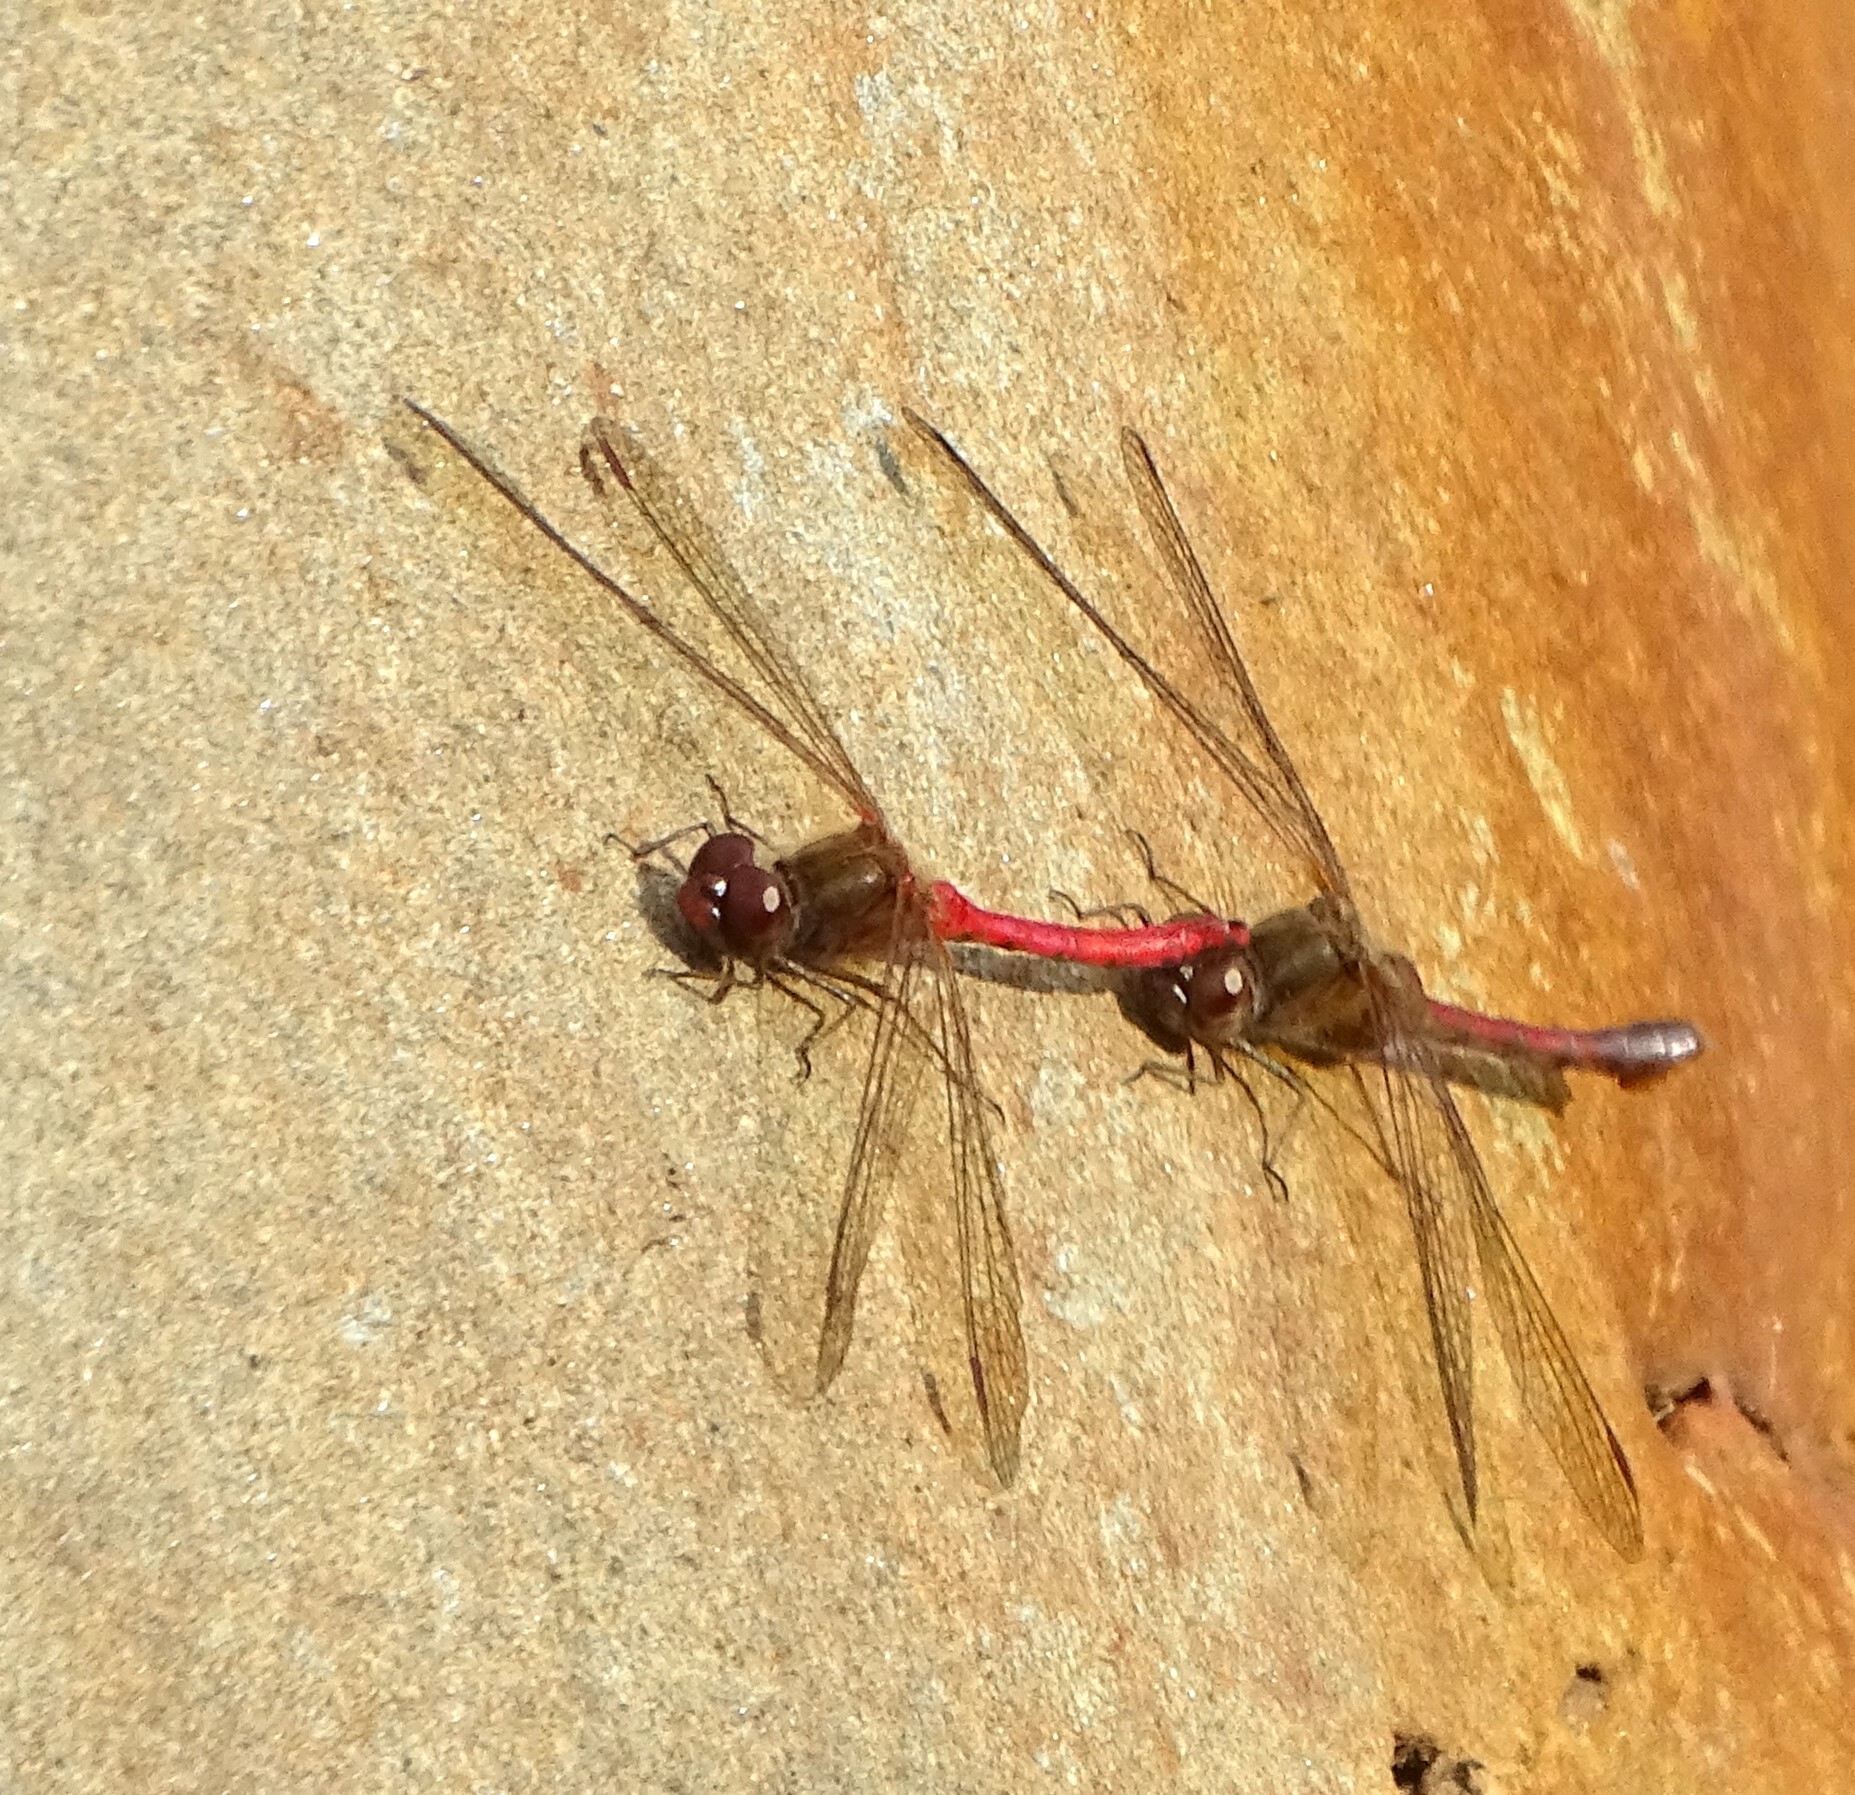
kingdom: Animalia
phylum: Arthropoda
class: Insecta
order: Odonata
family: Libellulidae
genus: Sympetrum
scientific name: Sympetrum vicinum
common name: Autumn meadowhawk
